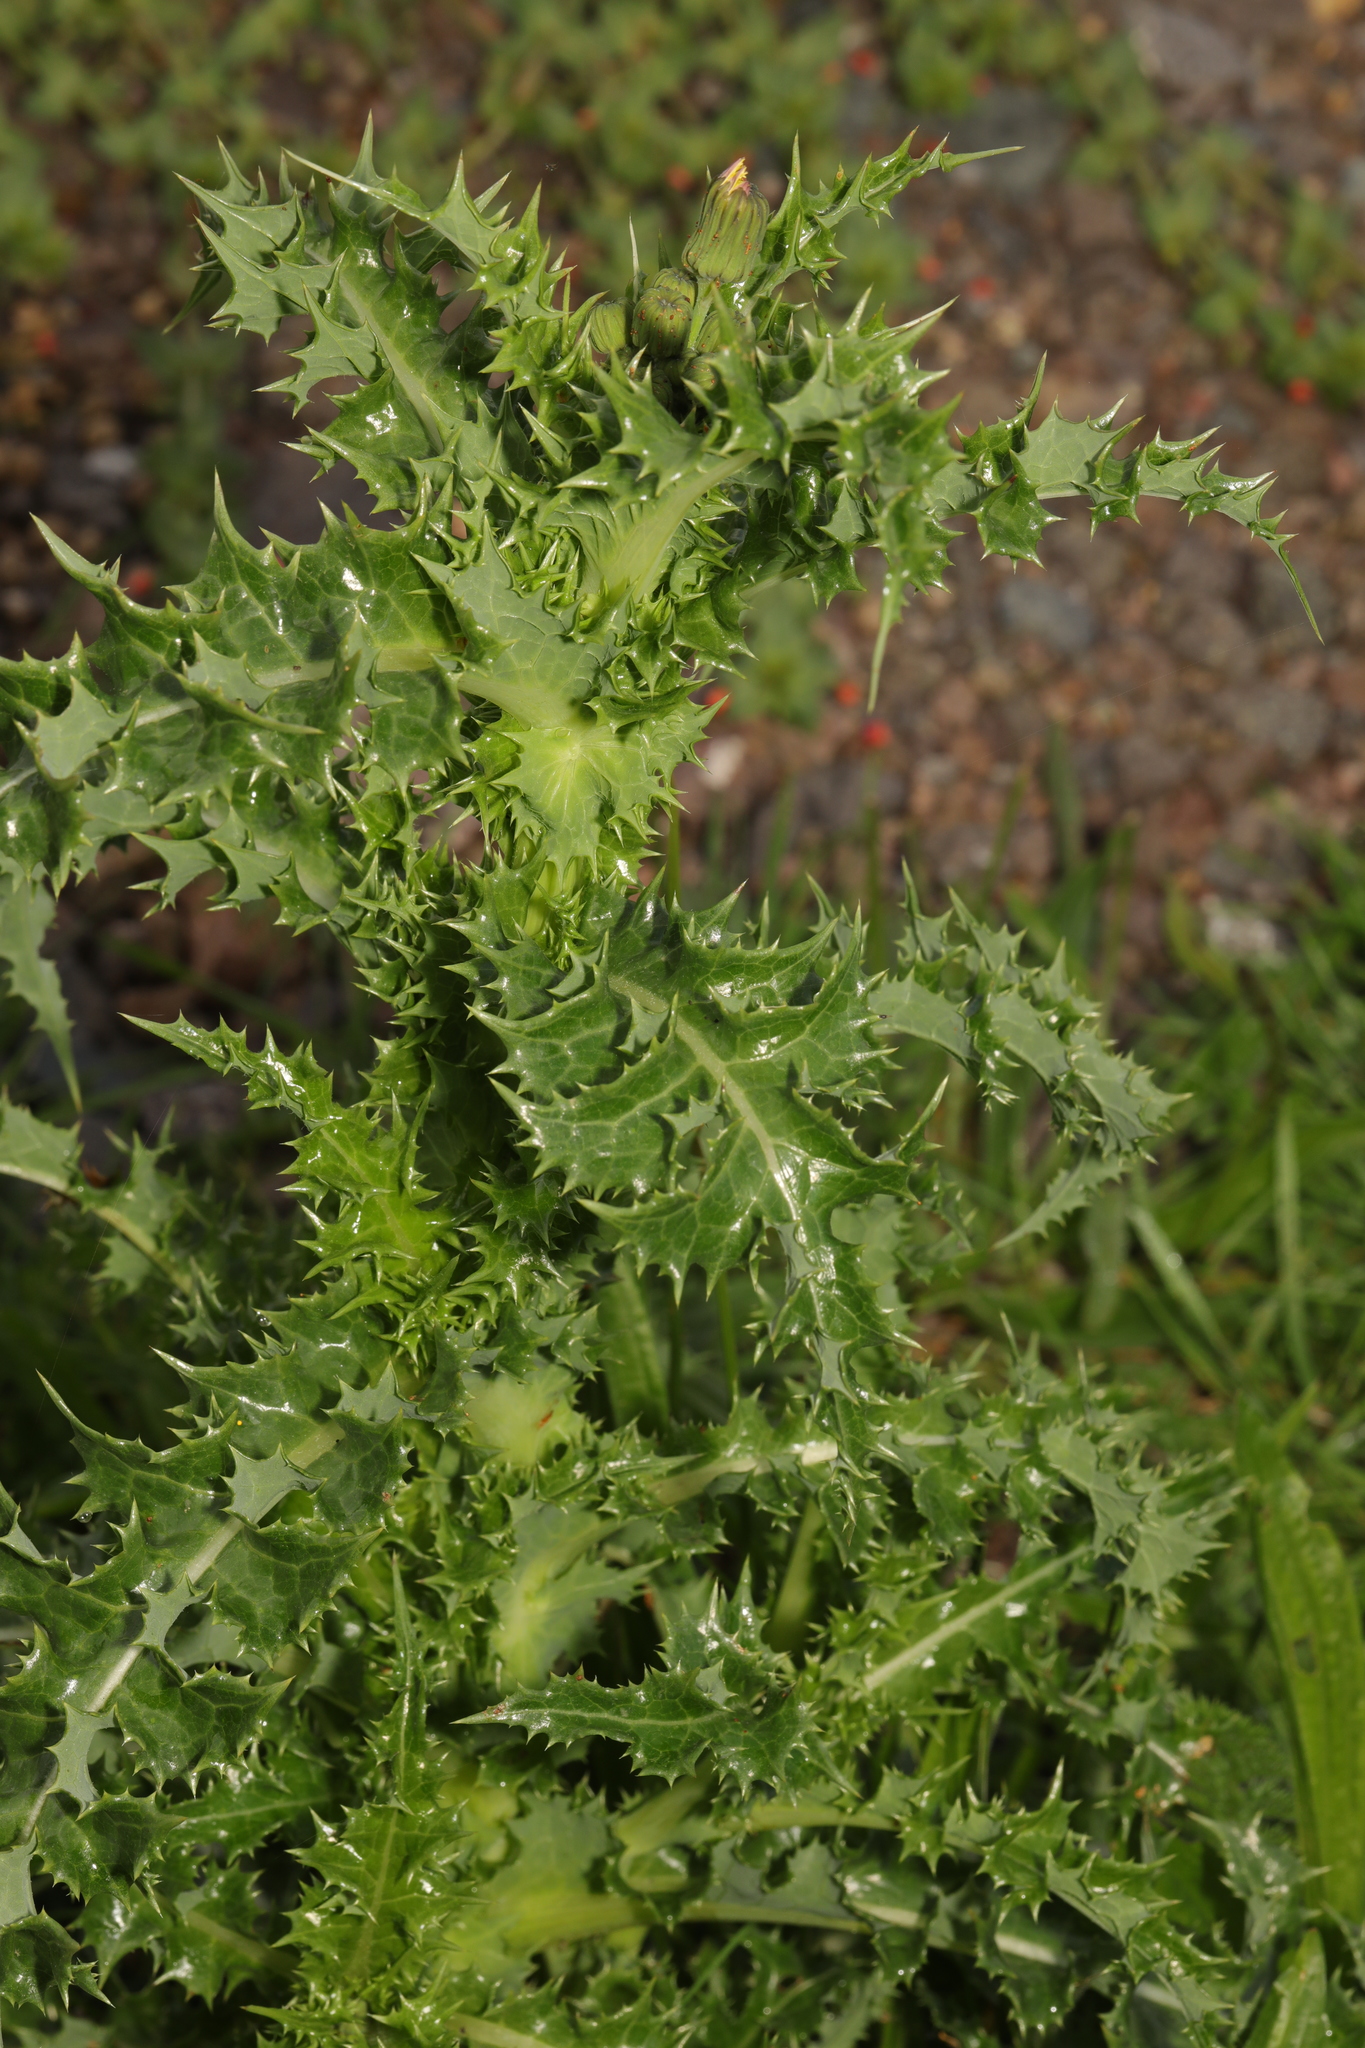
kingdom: Plantae
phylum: Tracheophyta
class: Magnoliopsida
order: Asterales
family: Asteraceae
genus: Sonchus
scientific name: Sonchus asper
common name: Prickly sow-thistle
